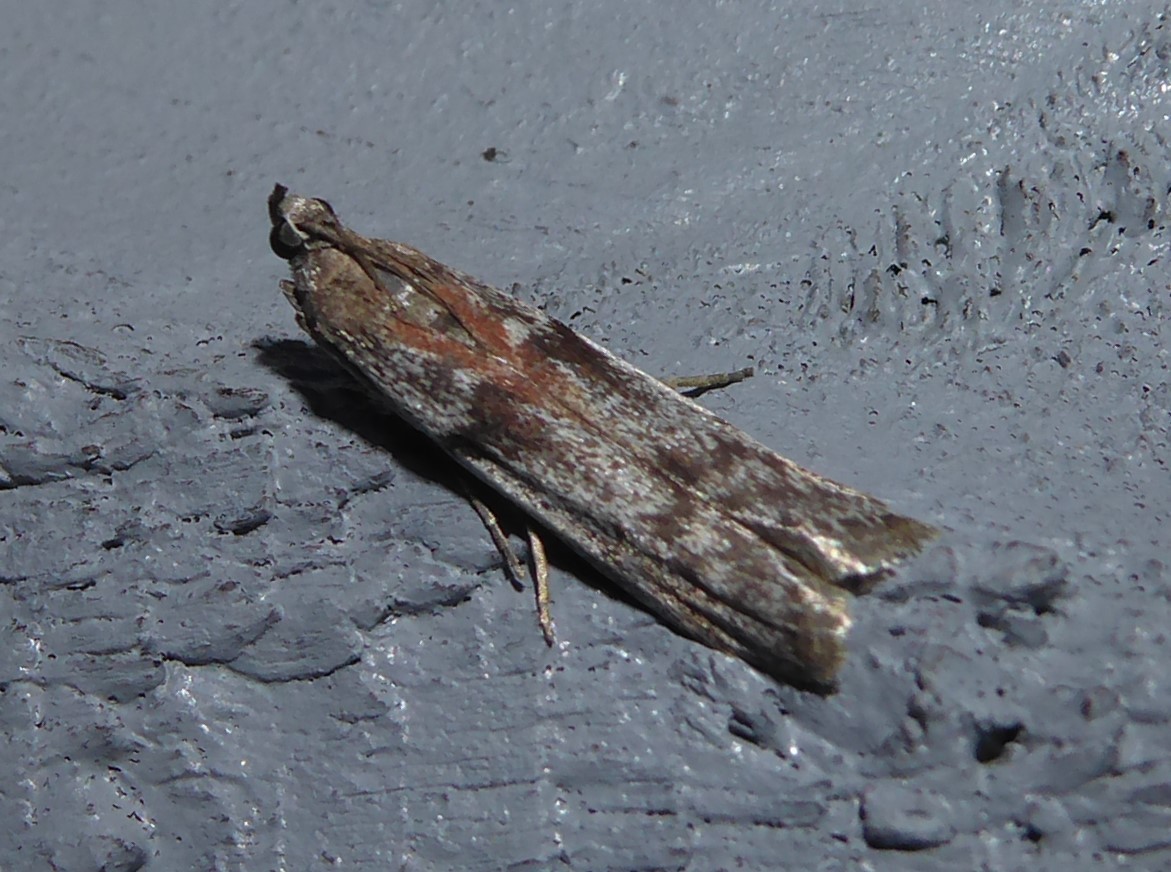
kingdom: Animalia
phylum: Arthropoda
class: Insecta
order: Lepidoptera
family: Pyralidae
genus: Patagoniodes
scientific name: Patagoniodes farinaria
